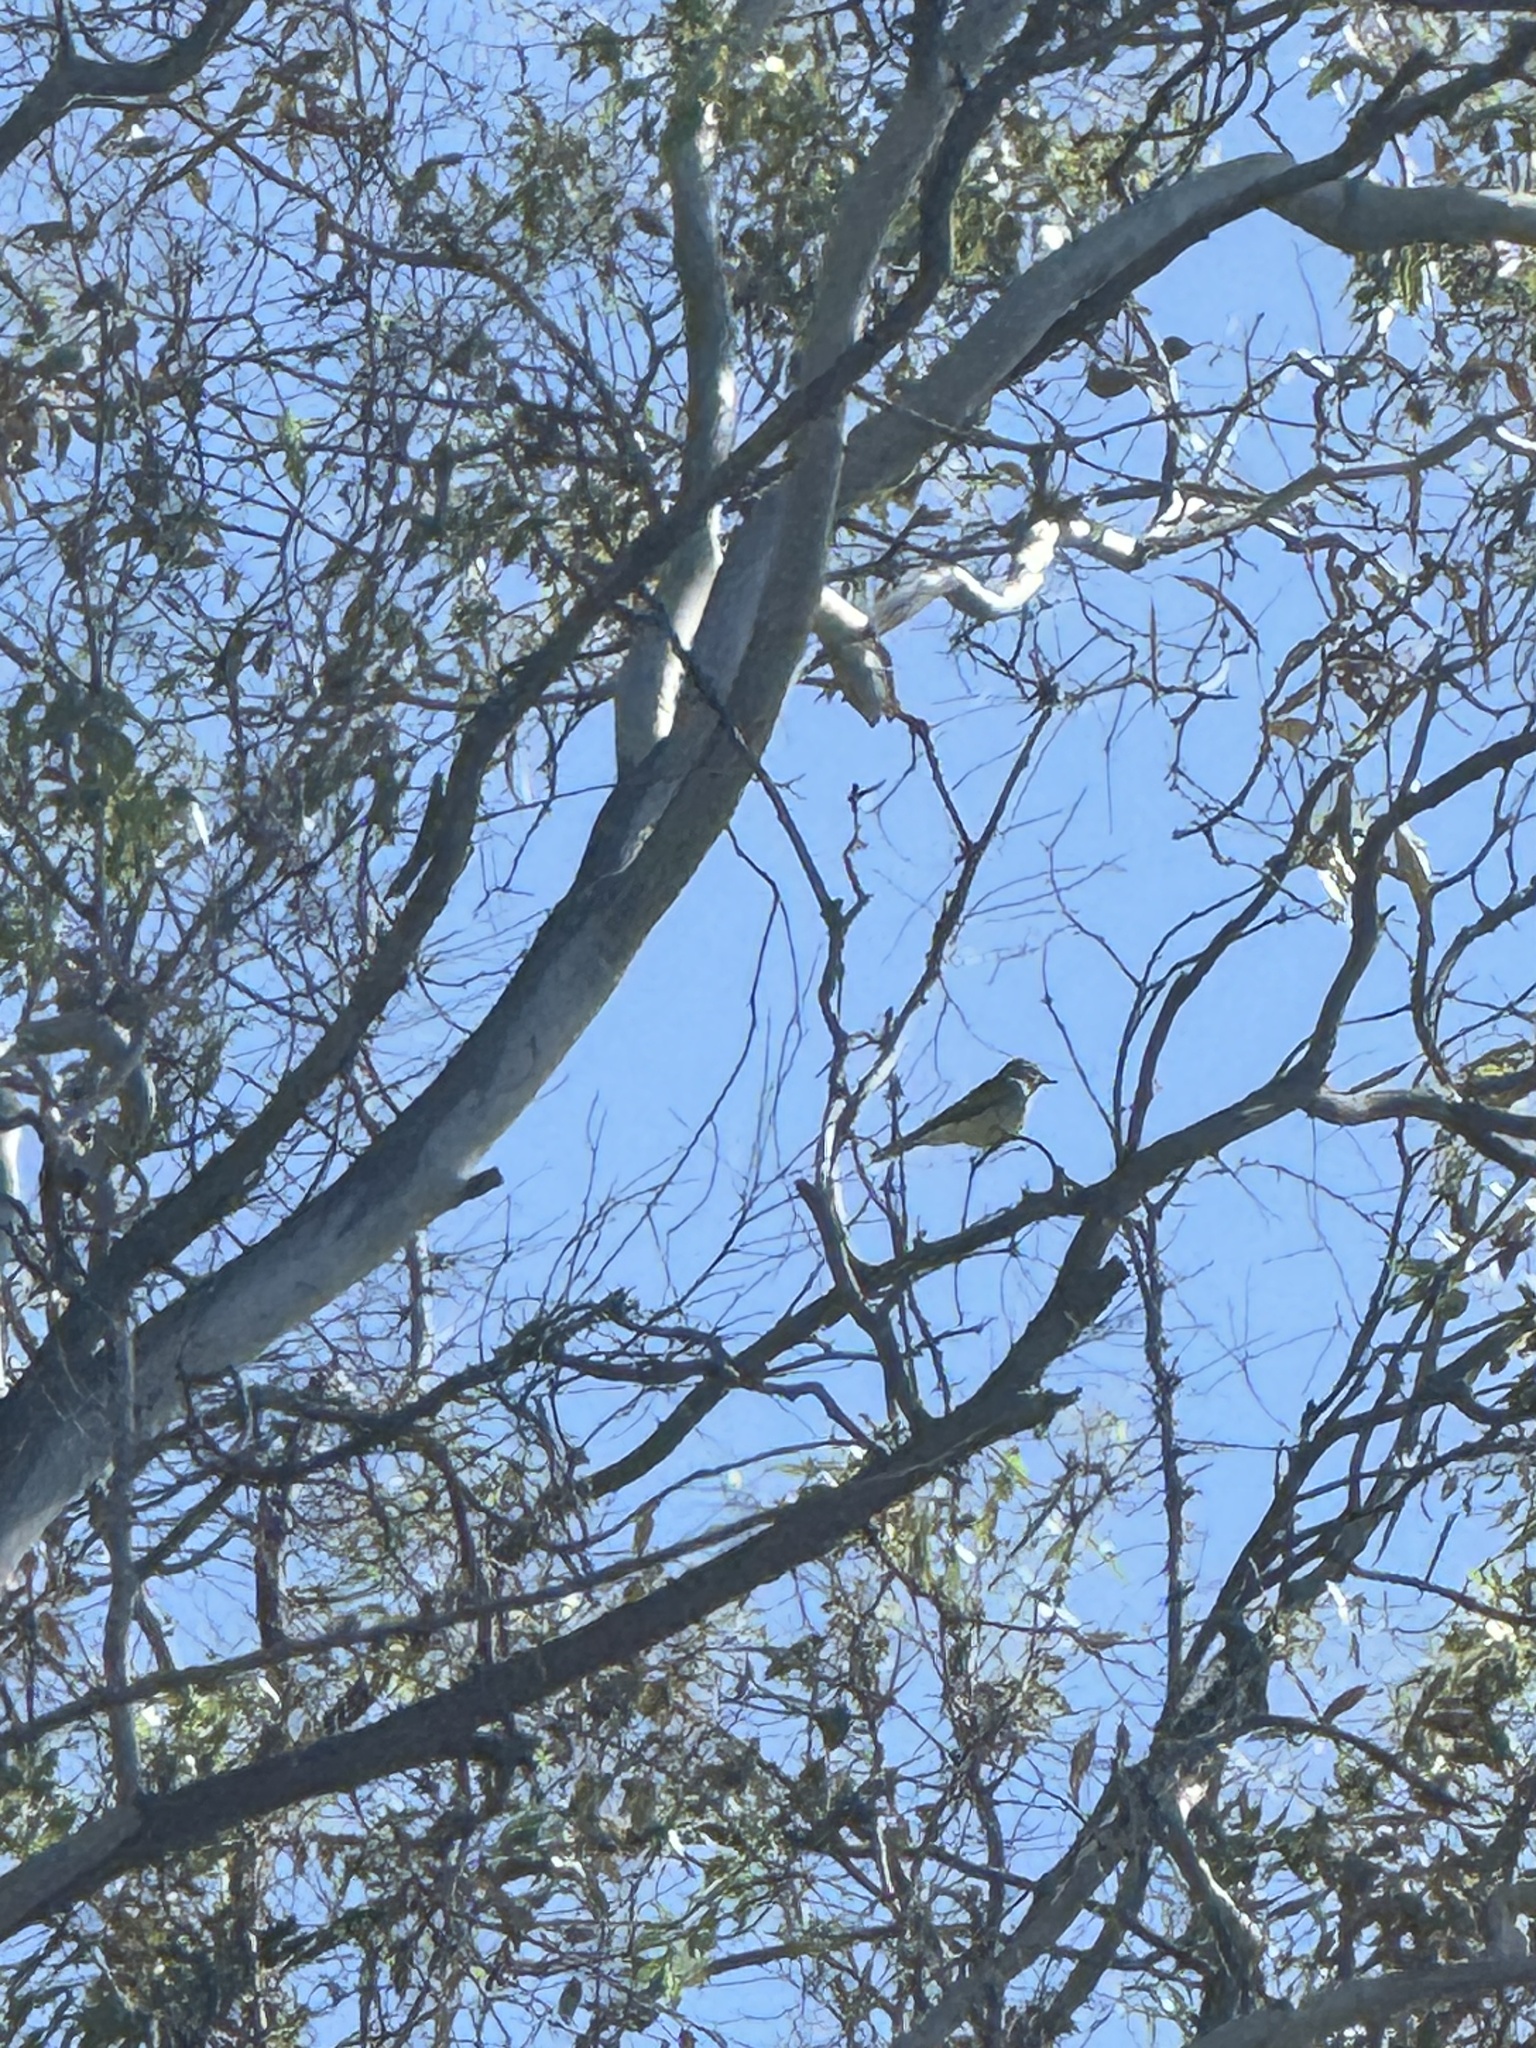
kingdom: Animalia
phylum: Chordata
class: Aves
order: Passeriformes
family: Tyrannidae
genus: Tyrannus
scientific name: Tyrannus vociferans
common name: Cassin's kingbird
